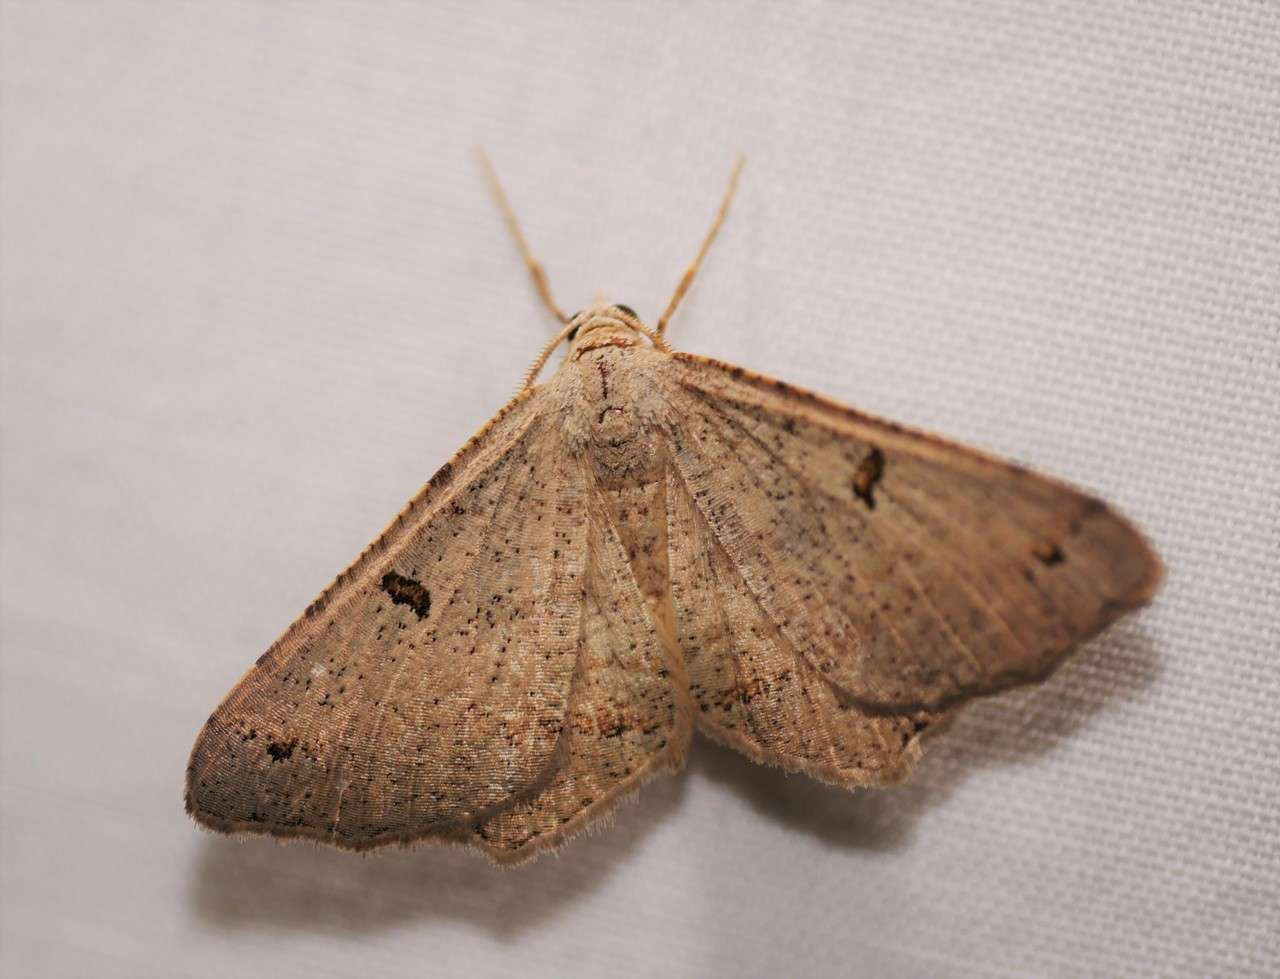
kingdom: Animalia
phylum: Arthropoda
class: Insecta
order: Lepidoptera
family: Geometridae
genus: Dissomorphia
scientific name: Dissomorphia australiaria
